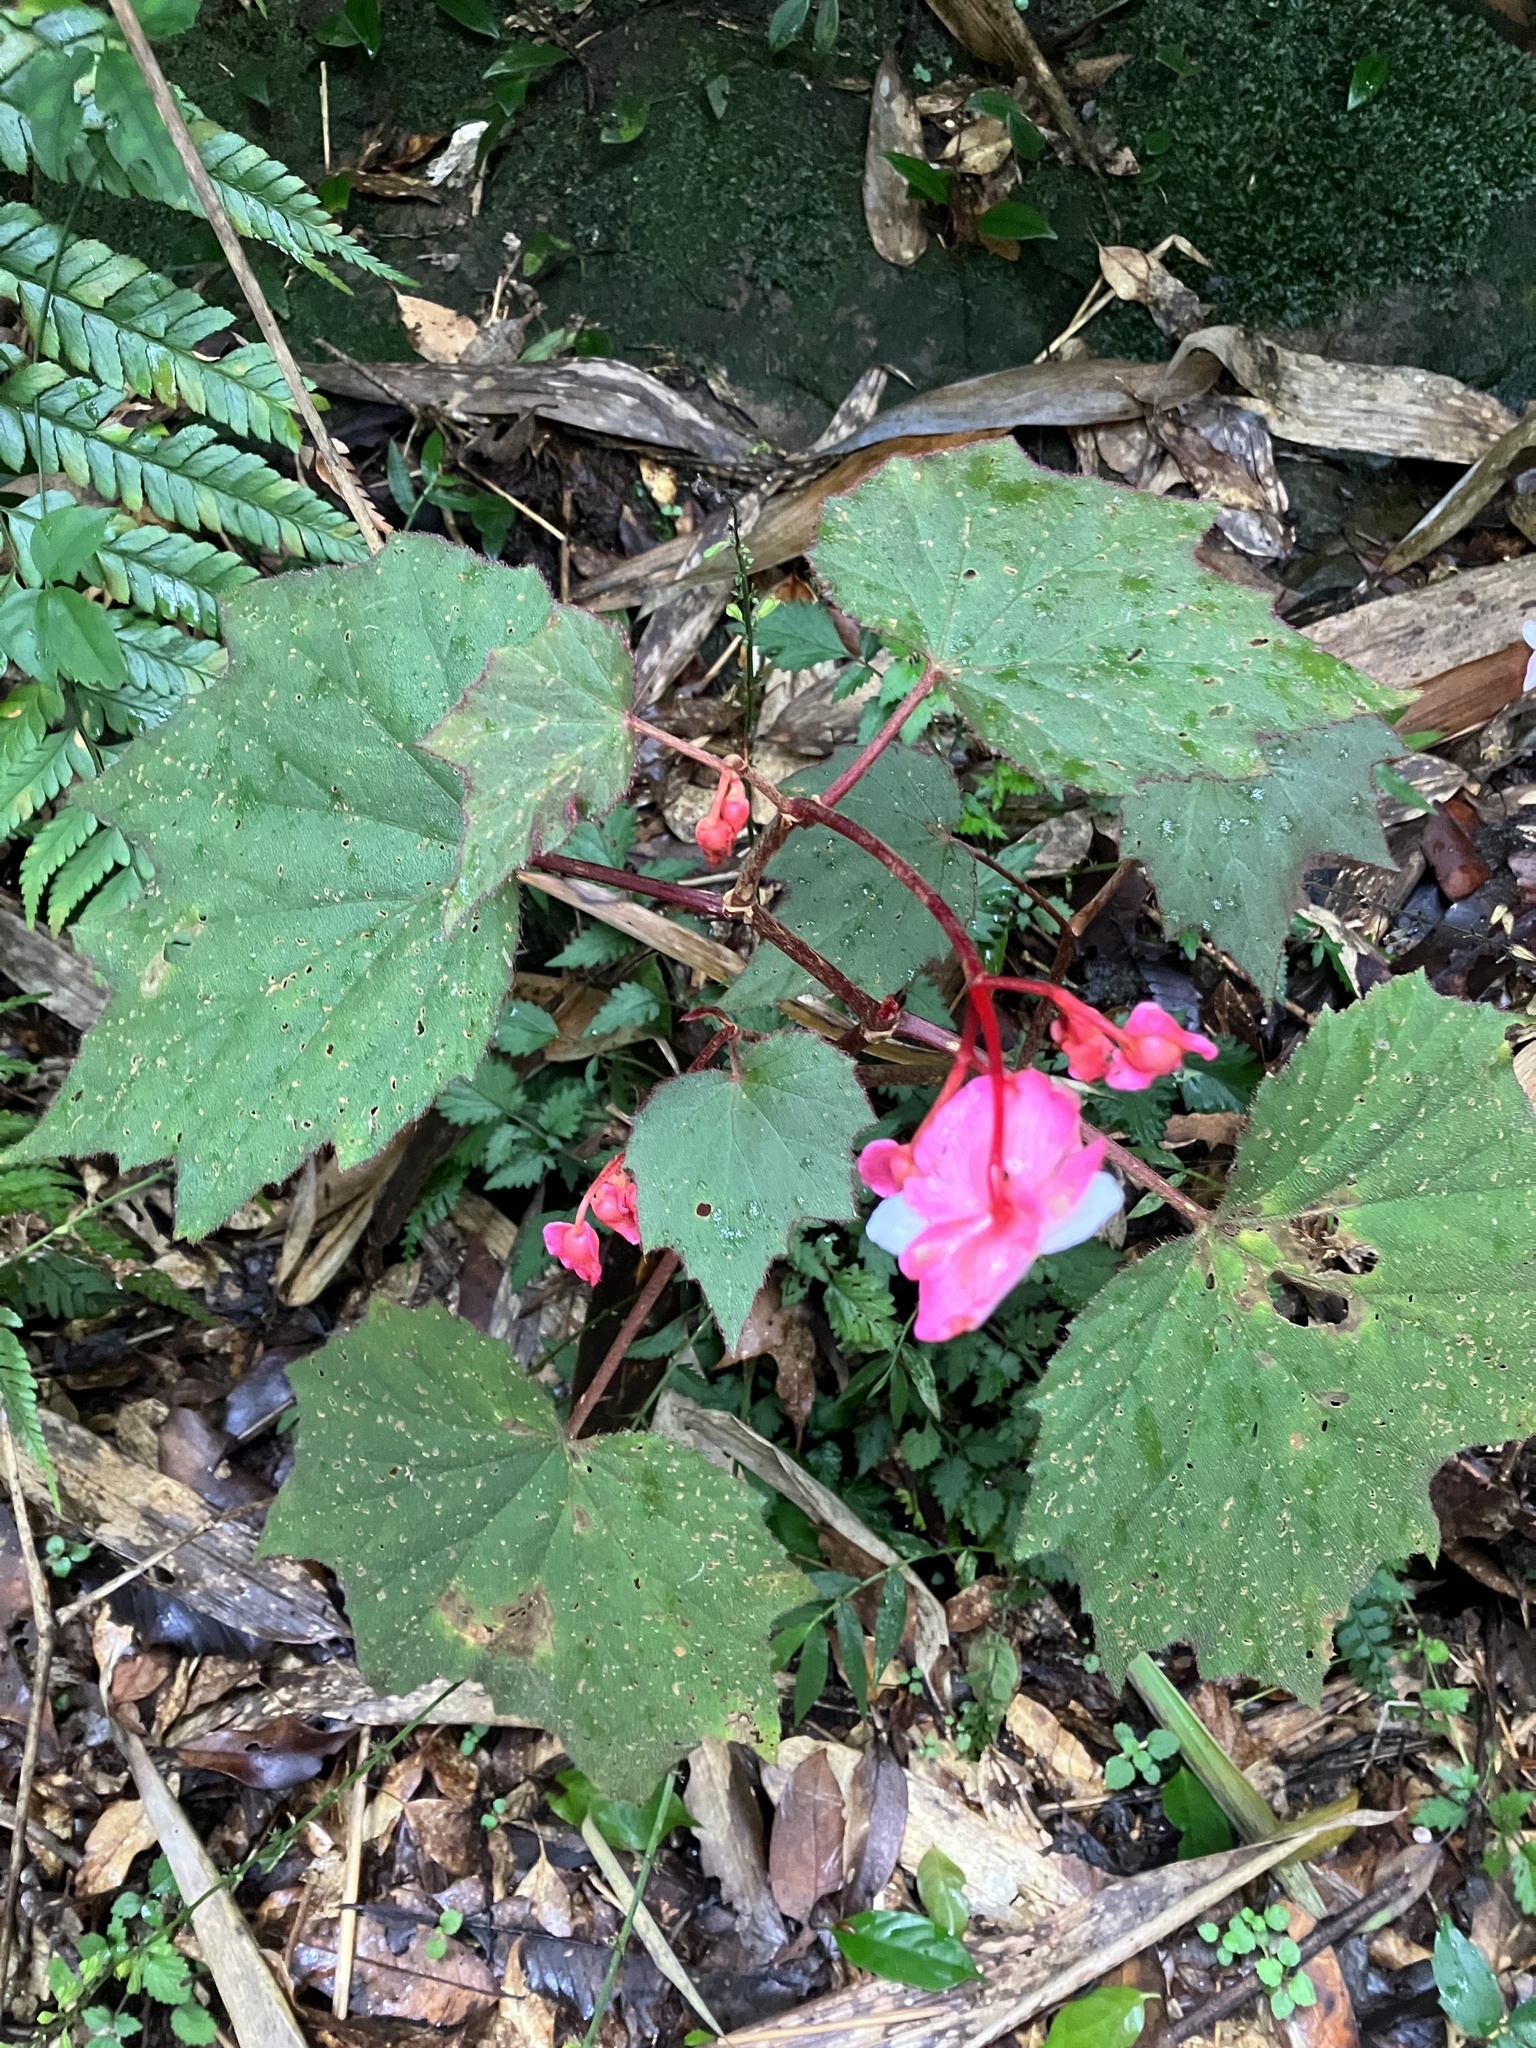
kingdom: Plantae
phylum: Tracheophyta
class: Magnoliopsida
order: Cucurbitales
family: Begoniaceae
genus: Begonia
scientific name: Begonia palmata
